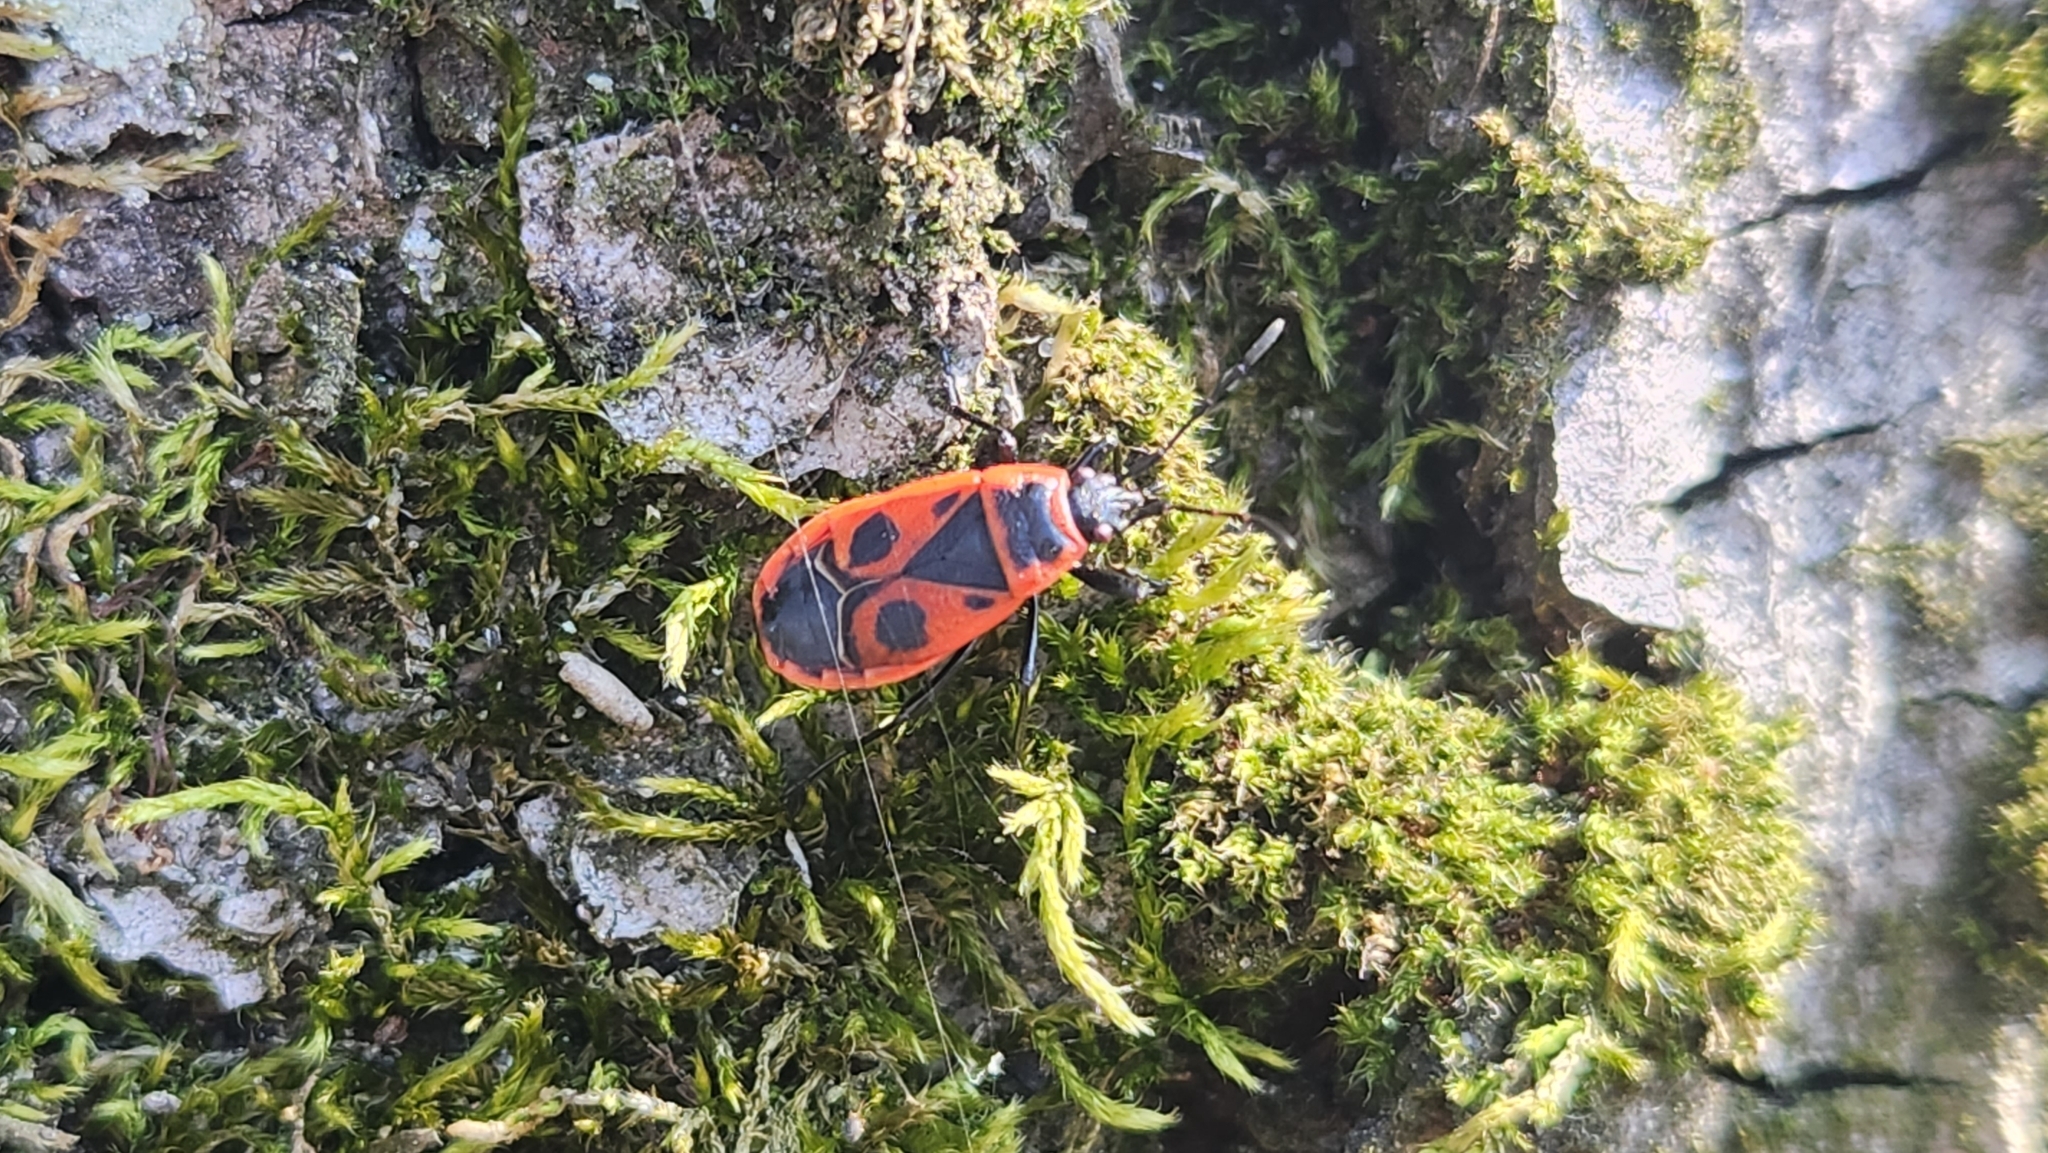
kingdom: Animalia
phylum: Arthropoda
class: Insecta
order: Hemiptera
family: Pyrrhocoridae
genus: Pyrrhocoris
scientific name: Pyrrhocoris apterus
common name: Firebug
